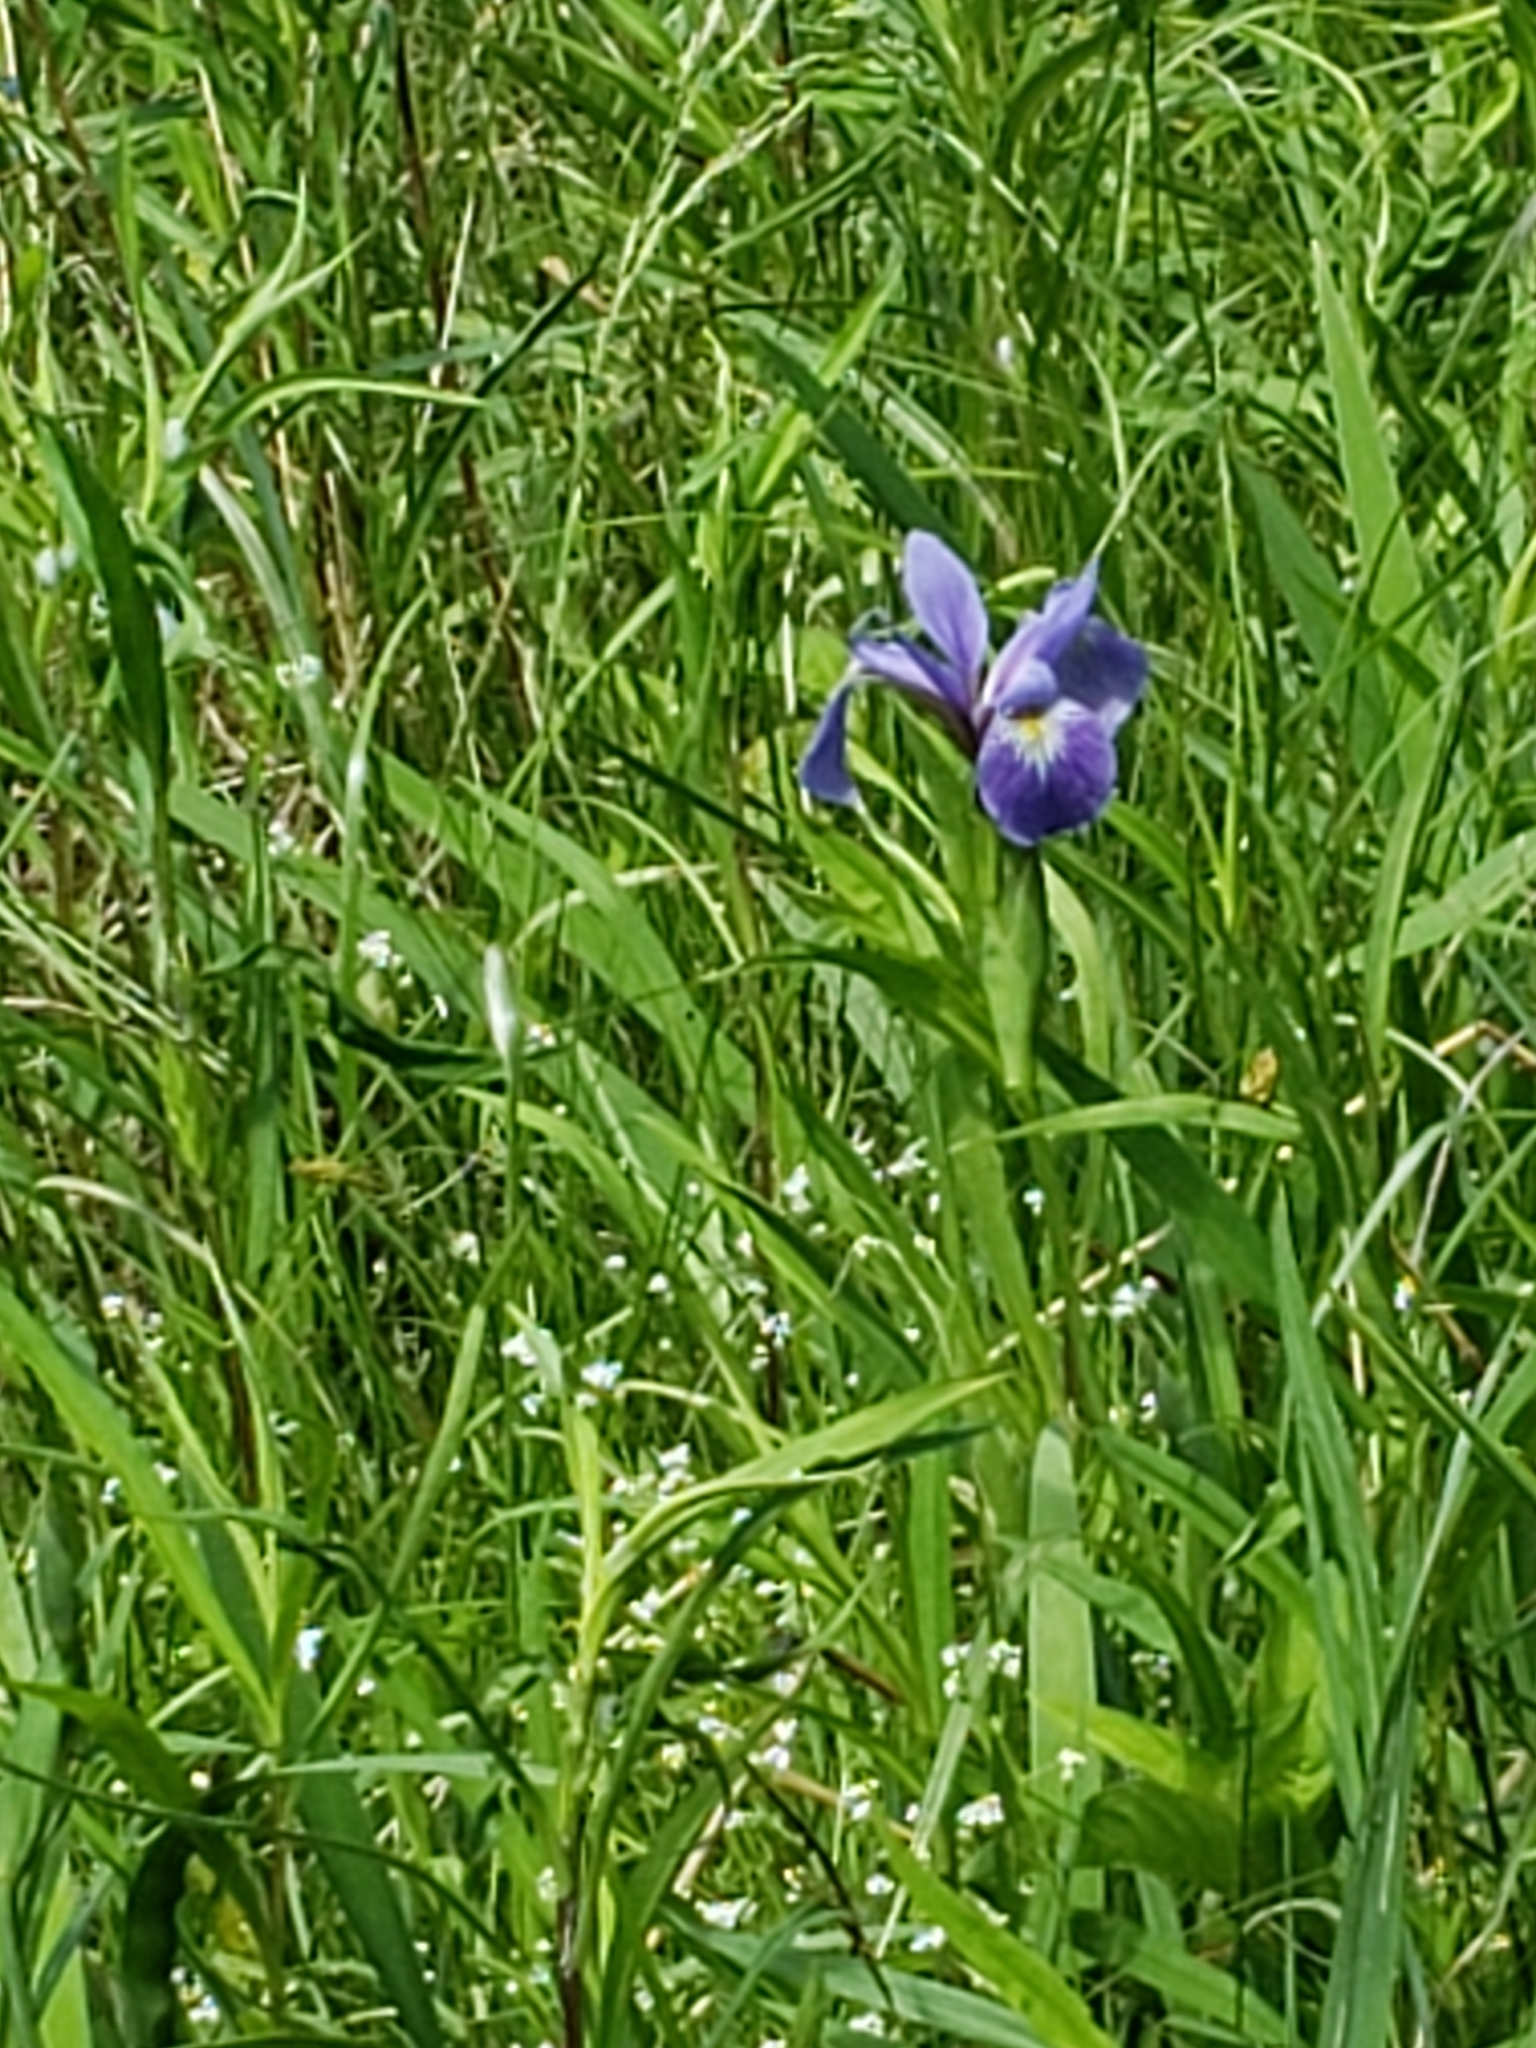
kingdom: Plantae
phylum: Tracheophyta
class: Liliopsida
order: Asparagales
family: Iridaceae
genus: Iris
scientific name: Iris versicolor
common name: Purple iris
